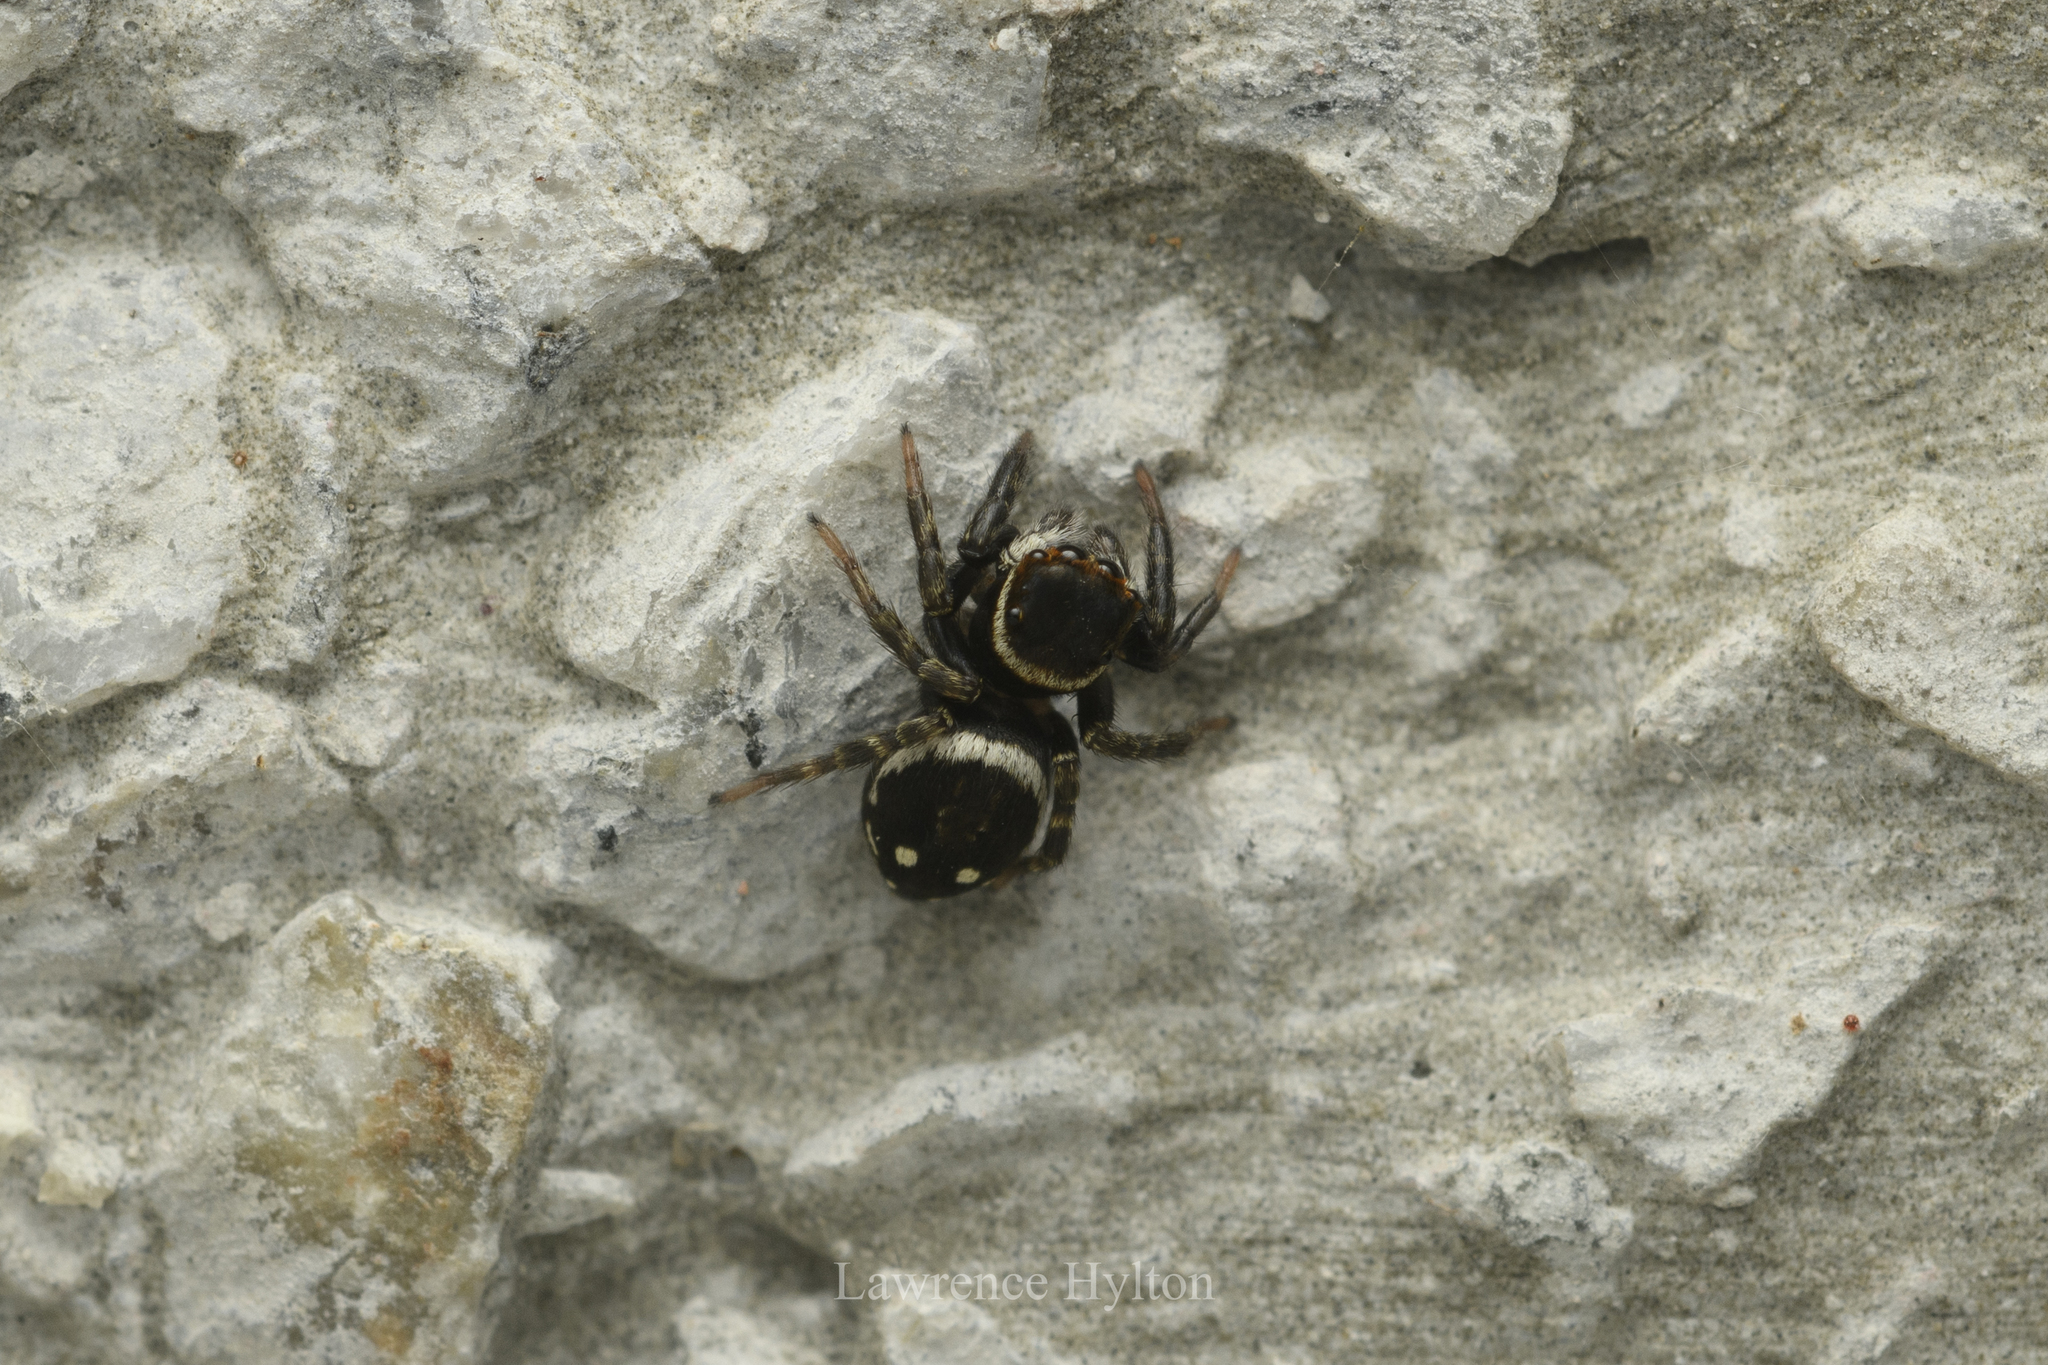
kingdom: Animalia
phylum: Arthropoda
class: Arachnida
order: Araneae
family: Salticidae
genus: Hasarius
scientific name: Hasarius adansoni
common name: Jumping spider
